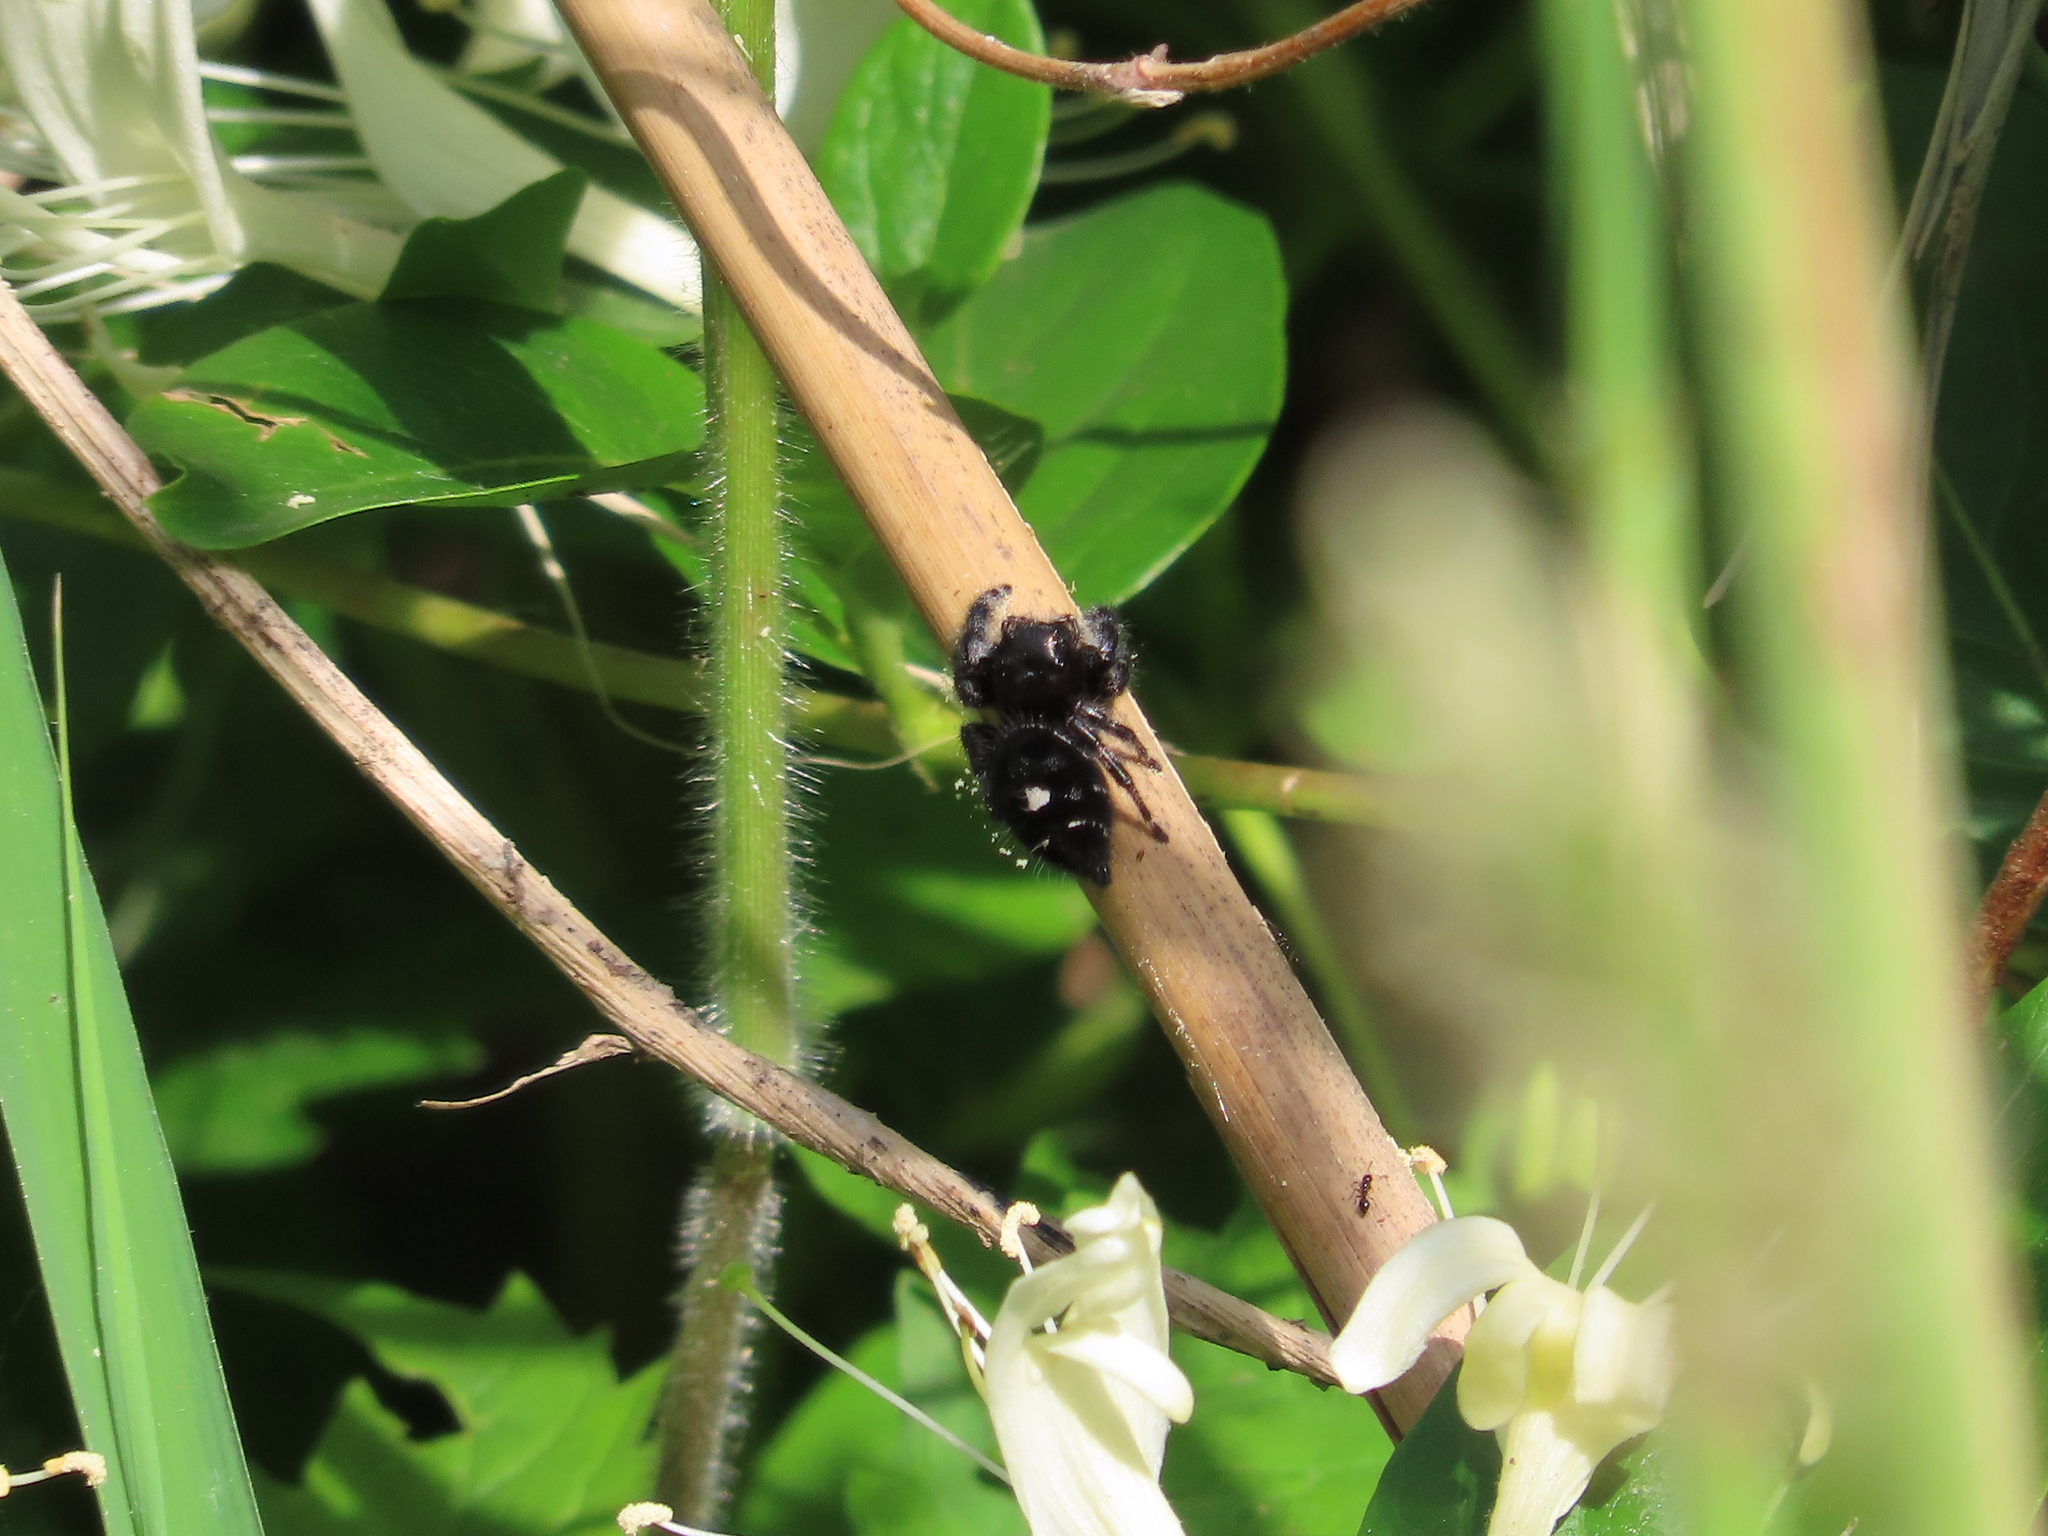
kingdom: Animalia
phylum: Arthropoda
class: Arachnida
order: Araneae
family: Salticidae
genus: Phidippus
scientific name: Phidippus audax
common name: Bold jumper
